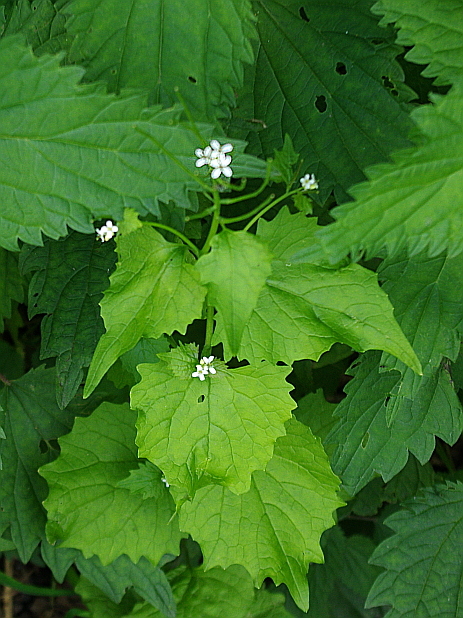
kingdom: Plantae
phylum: Tracheophyta
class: Magnoliopsida
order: Brassicales
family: Brassicaceae
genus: Alliaria
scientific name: Alliaria petiolata
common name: Garlic mustard
